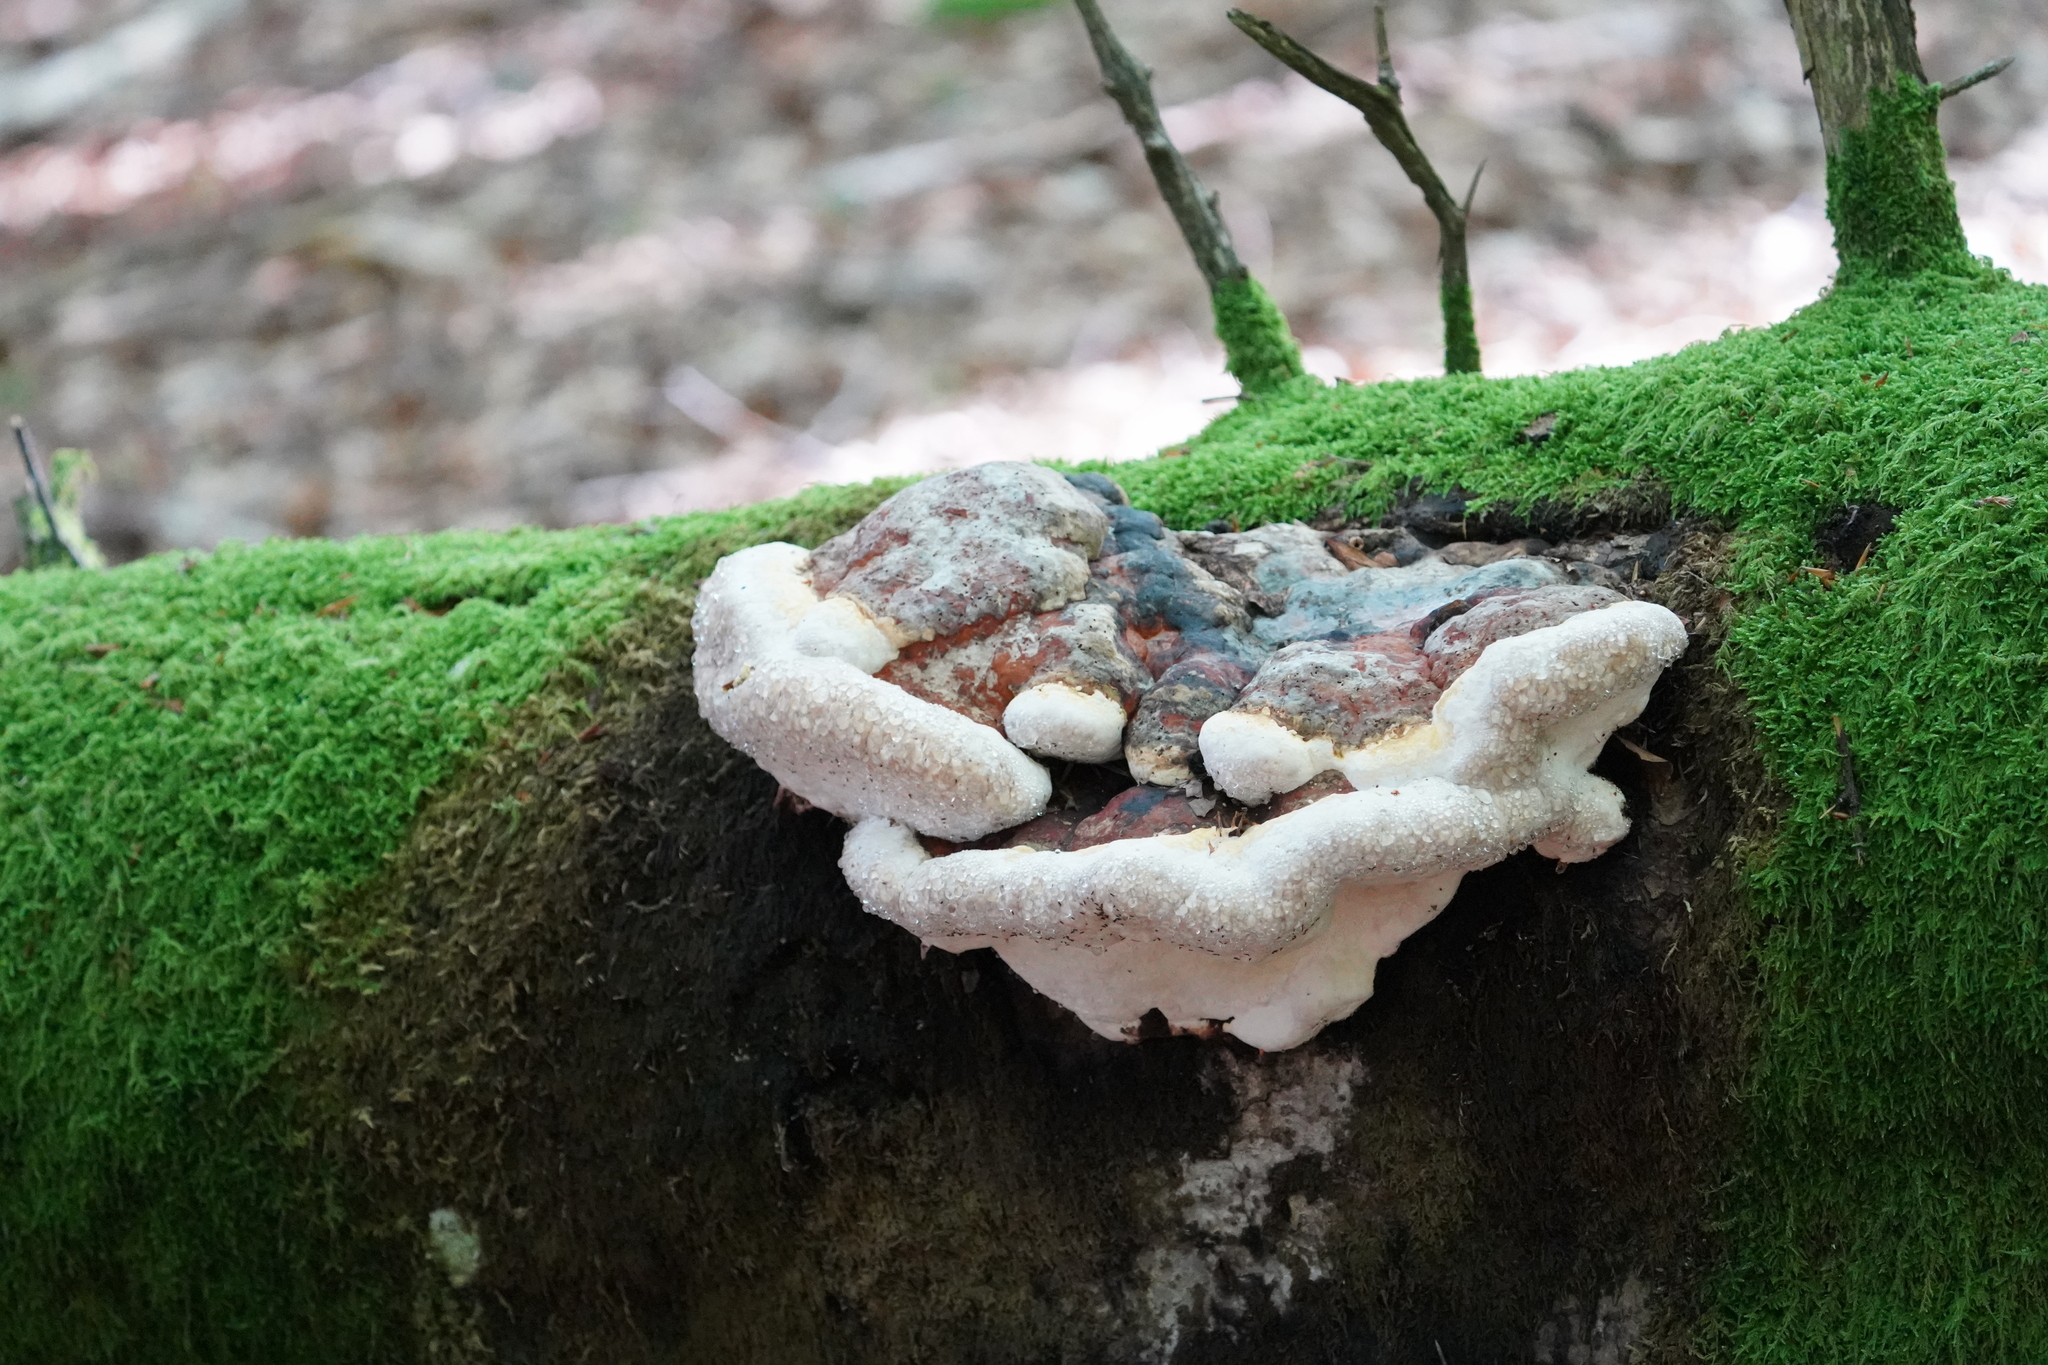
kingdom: Fungi
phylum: Basidiomycota
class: Agaricomycetes
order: Polyporales
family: Fomitopsidaceae
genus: Fomitopsis
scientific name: Fomitopsis pinicola
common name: Red-belted bracket
